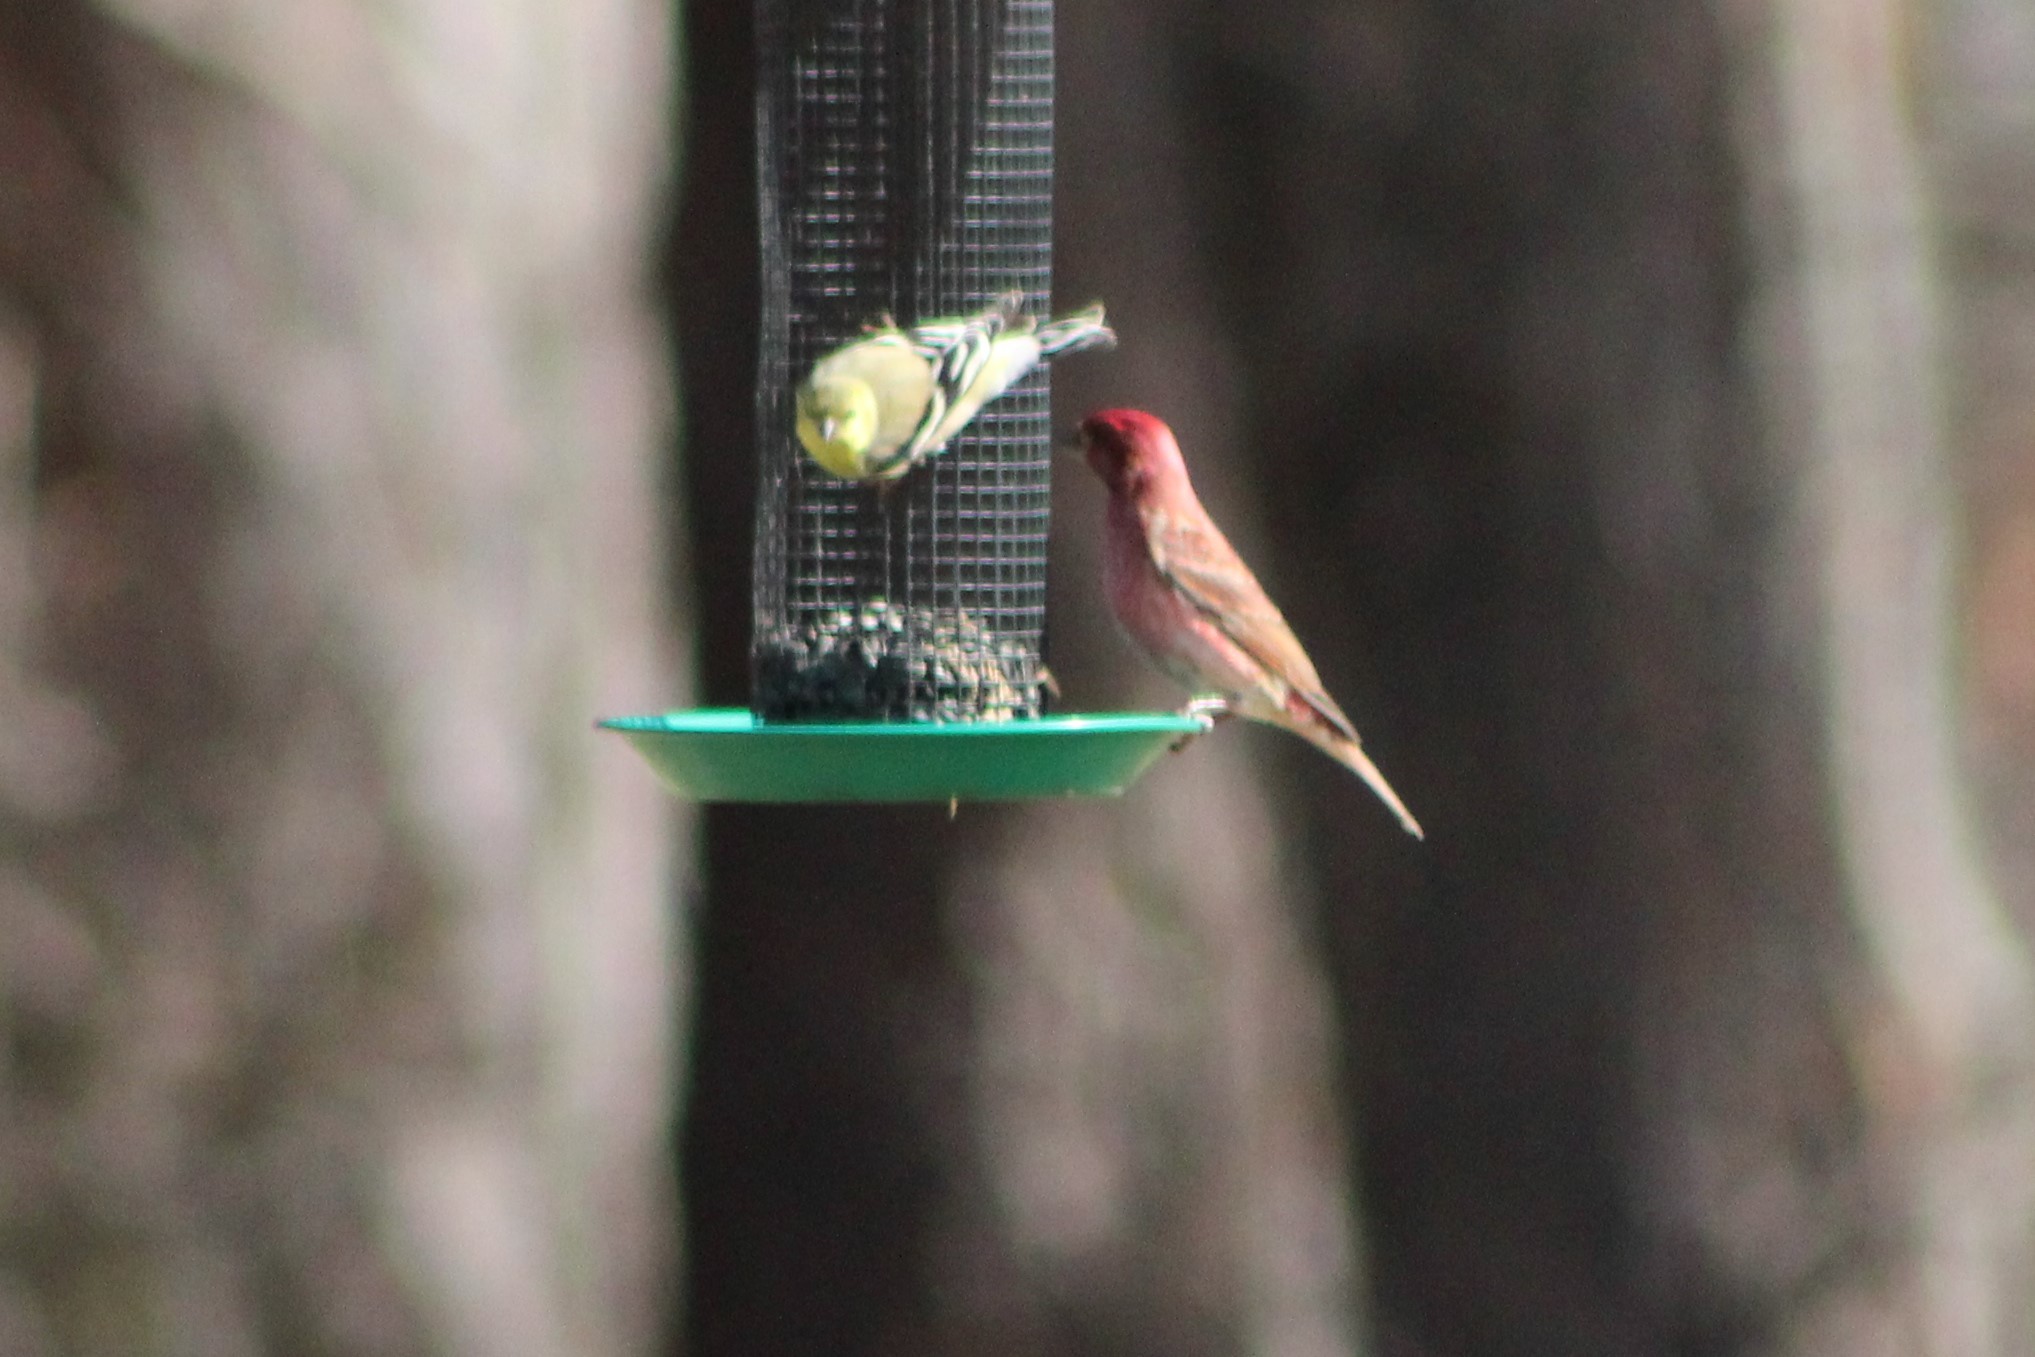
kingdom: Animalia
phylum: Chordata
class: Aves
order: Passeriformes
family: Fringillidae
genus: Haemorhous
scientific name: Haemorhous purpureus
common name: Purple finch
